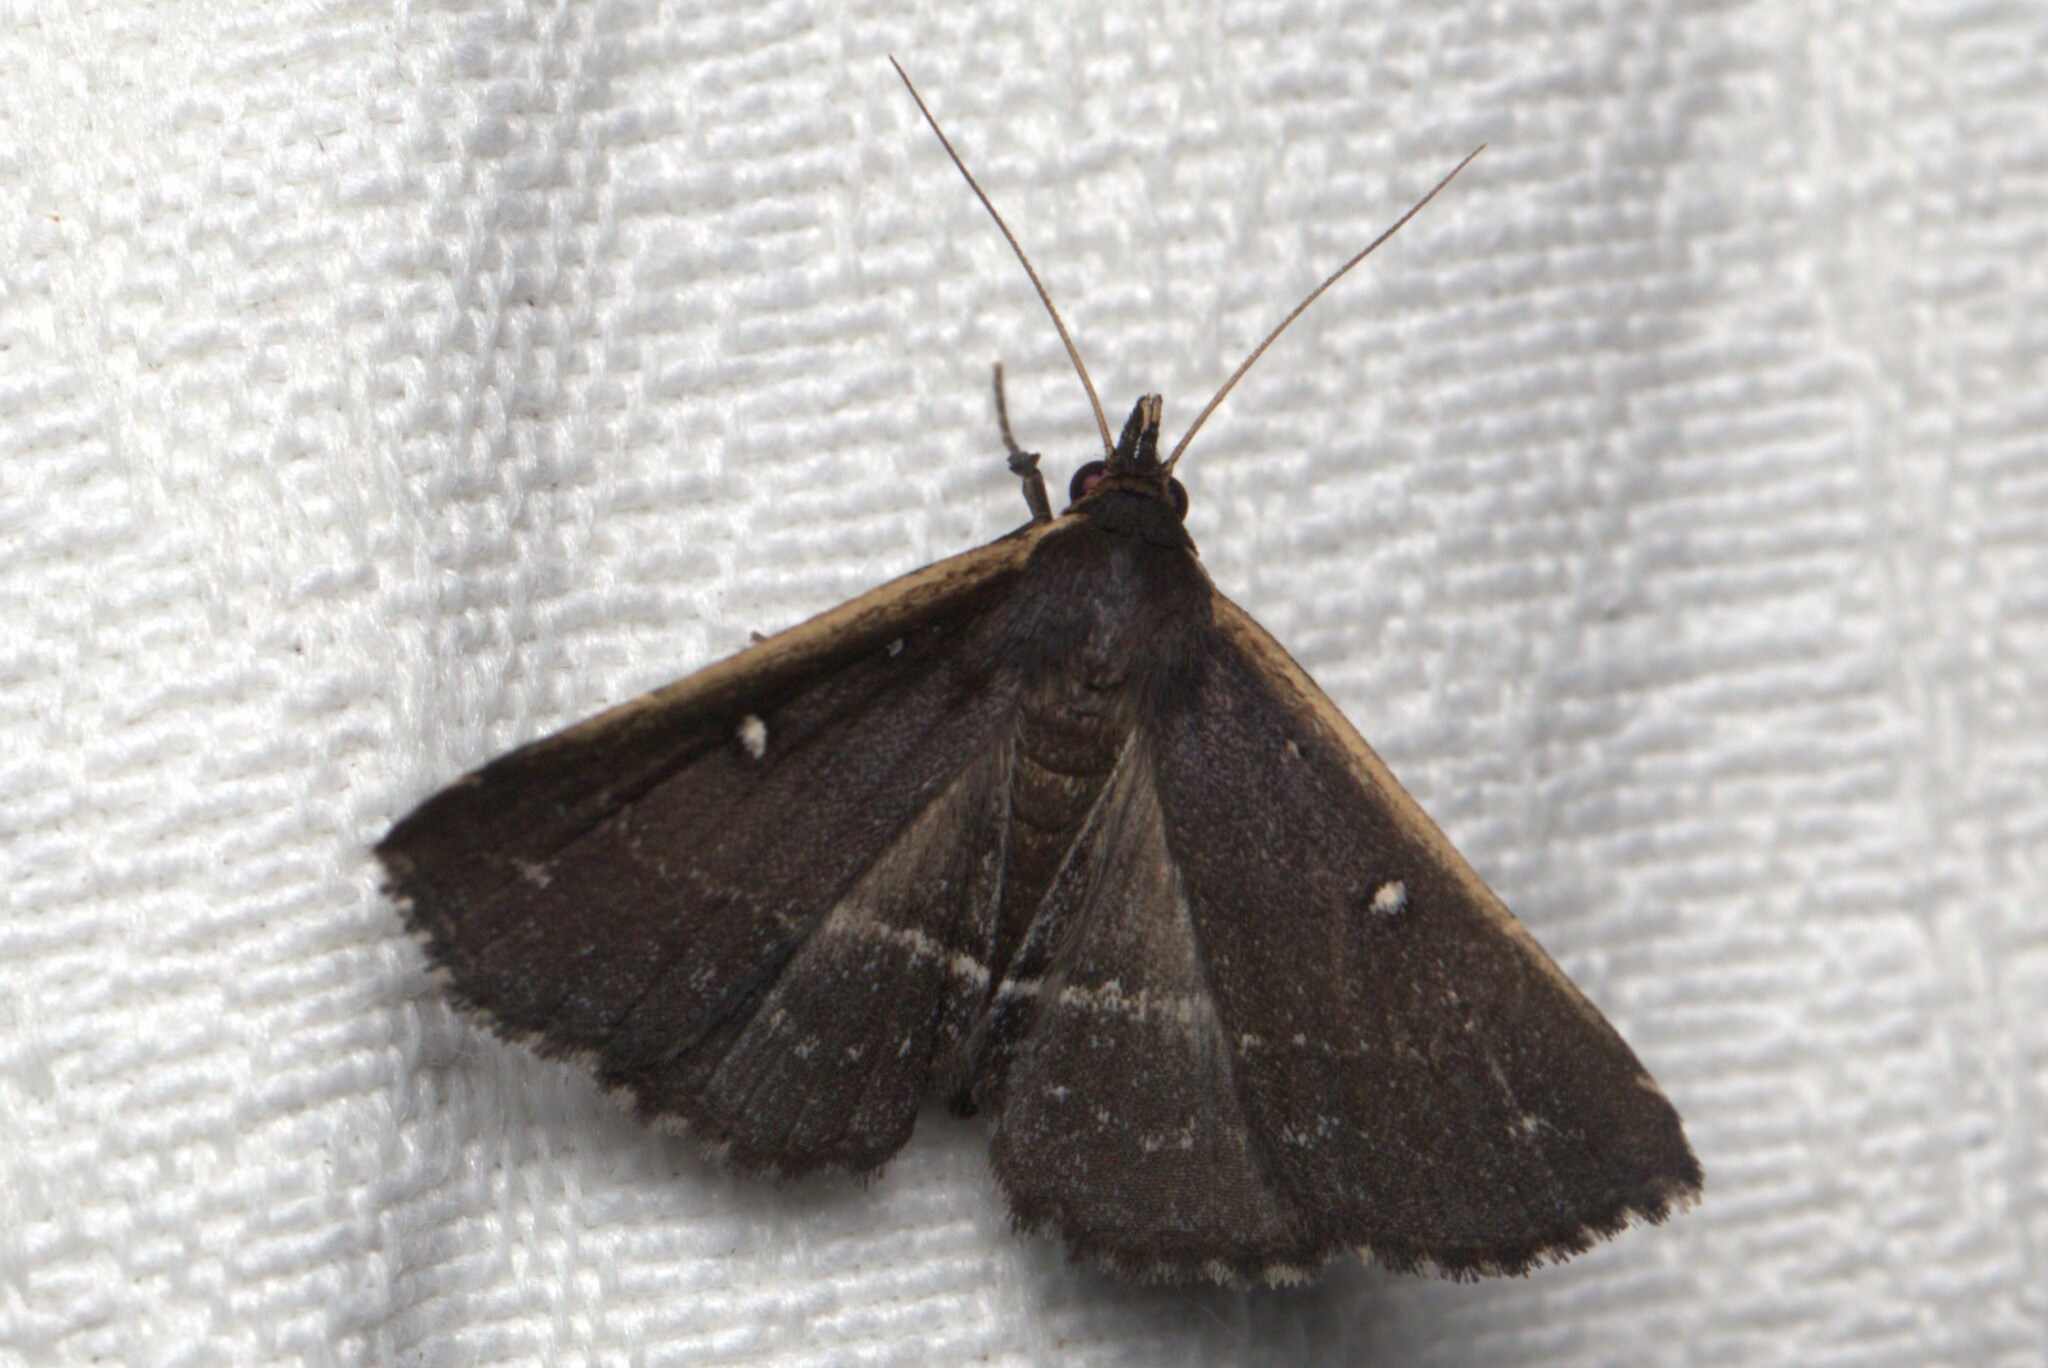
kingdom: Animalia
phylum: Arthropoda
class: Insecta
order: Lepidoptera
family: Erebidae
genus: Adrapsa
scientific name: Adrapsa ablualis
